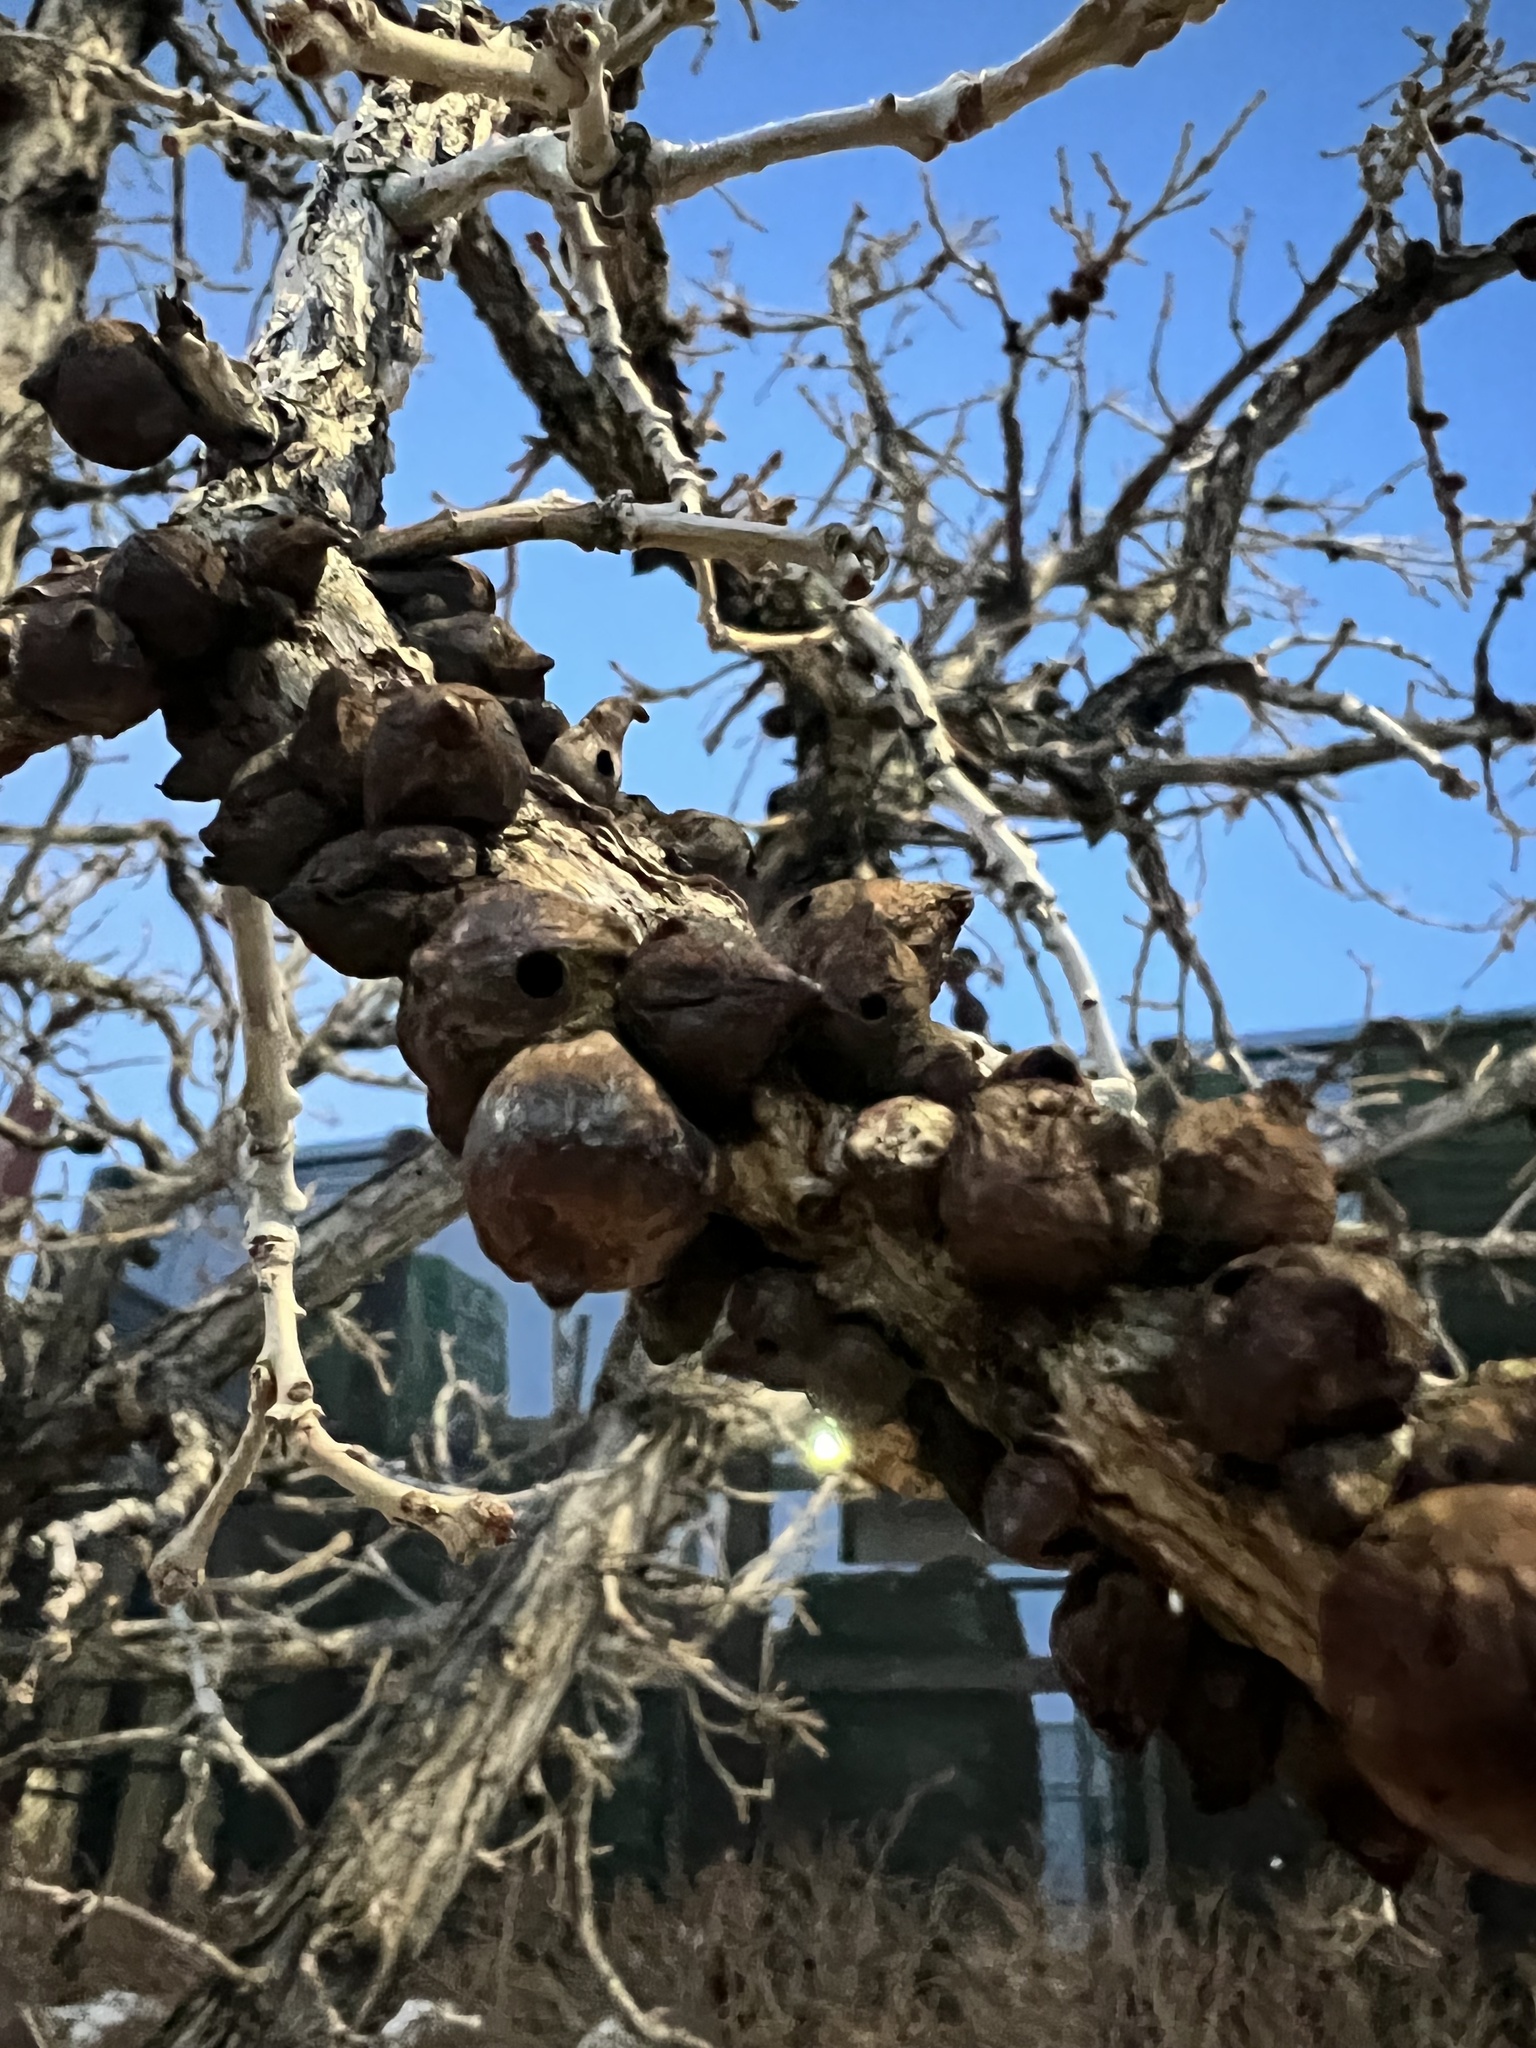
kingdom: Animalia
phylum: Arthropoda
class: Insecta
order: Hymenoptera
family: Cynipidae
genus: Disholcaspis
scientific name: Disholcaspis
